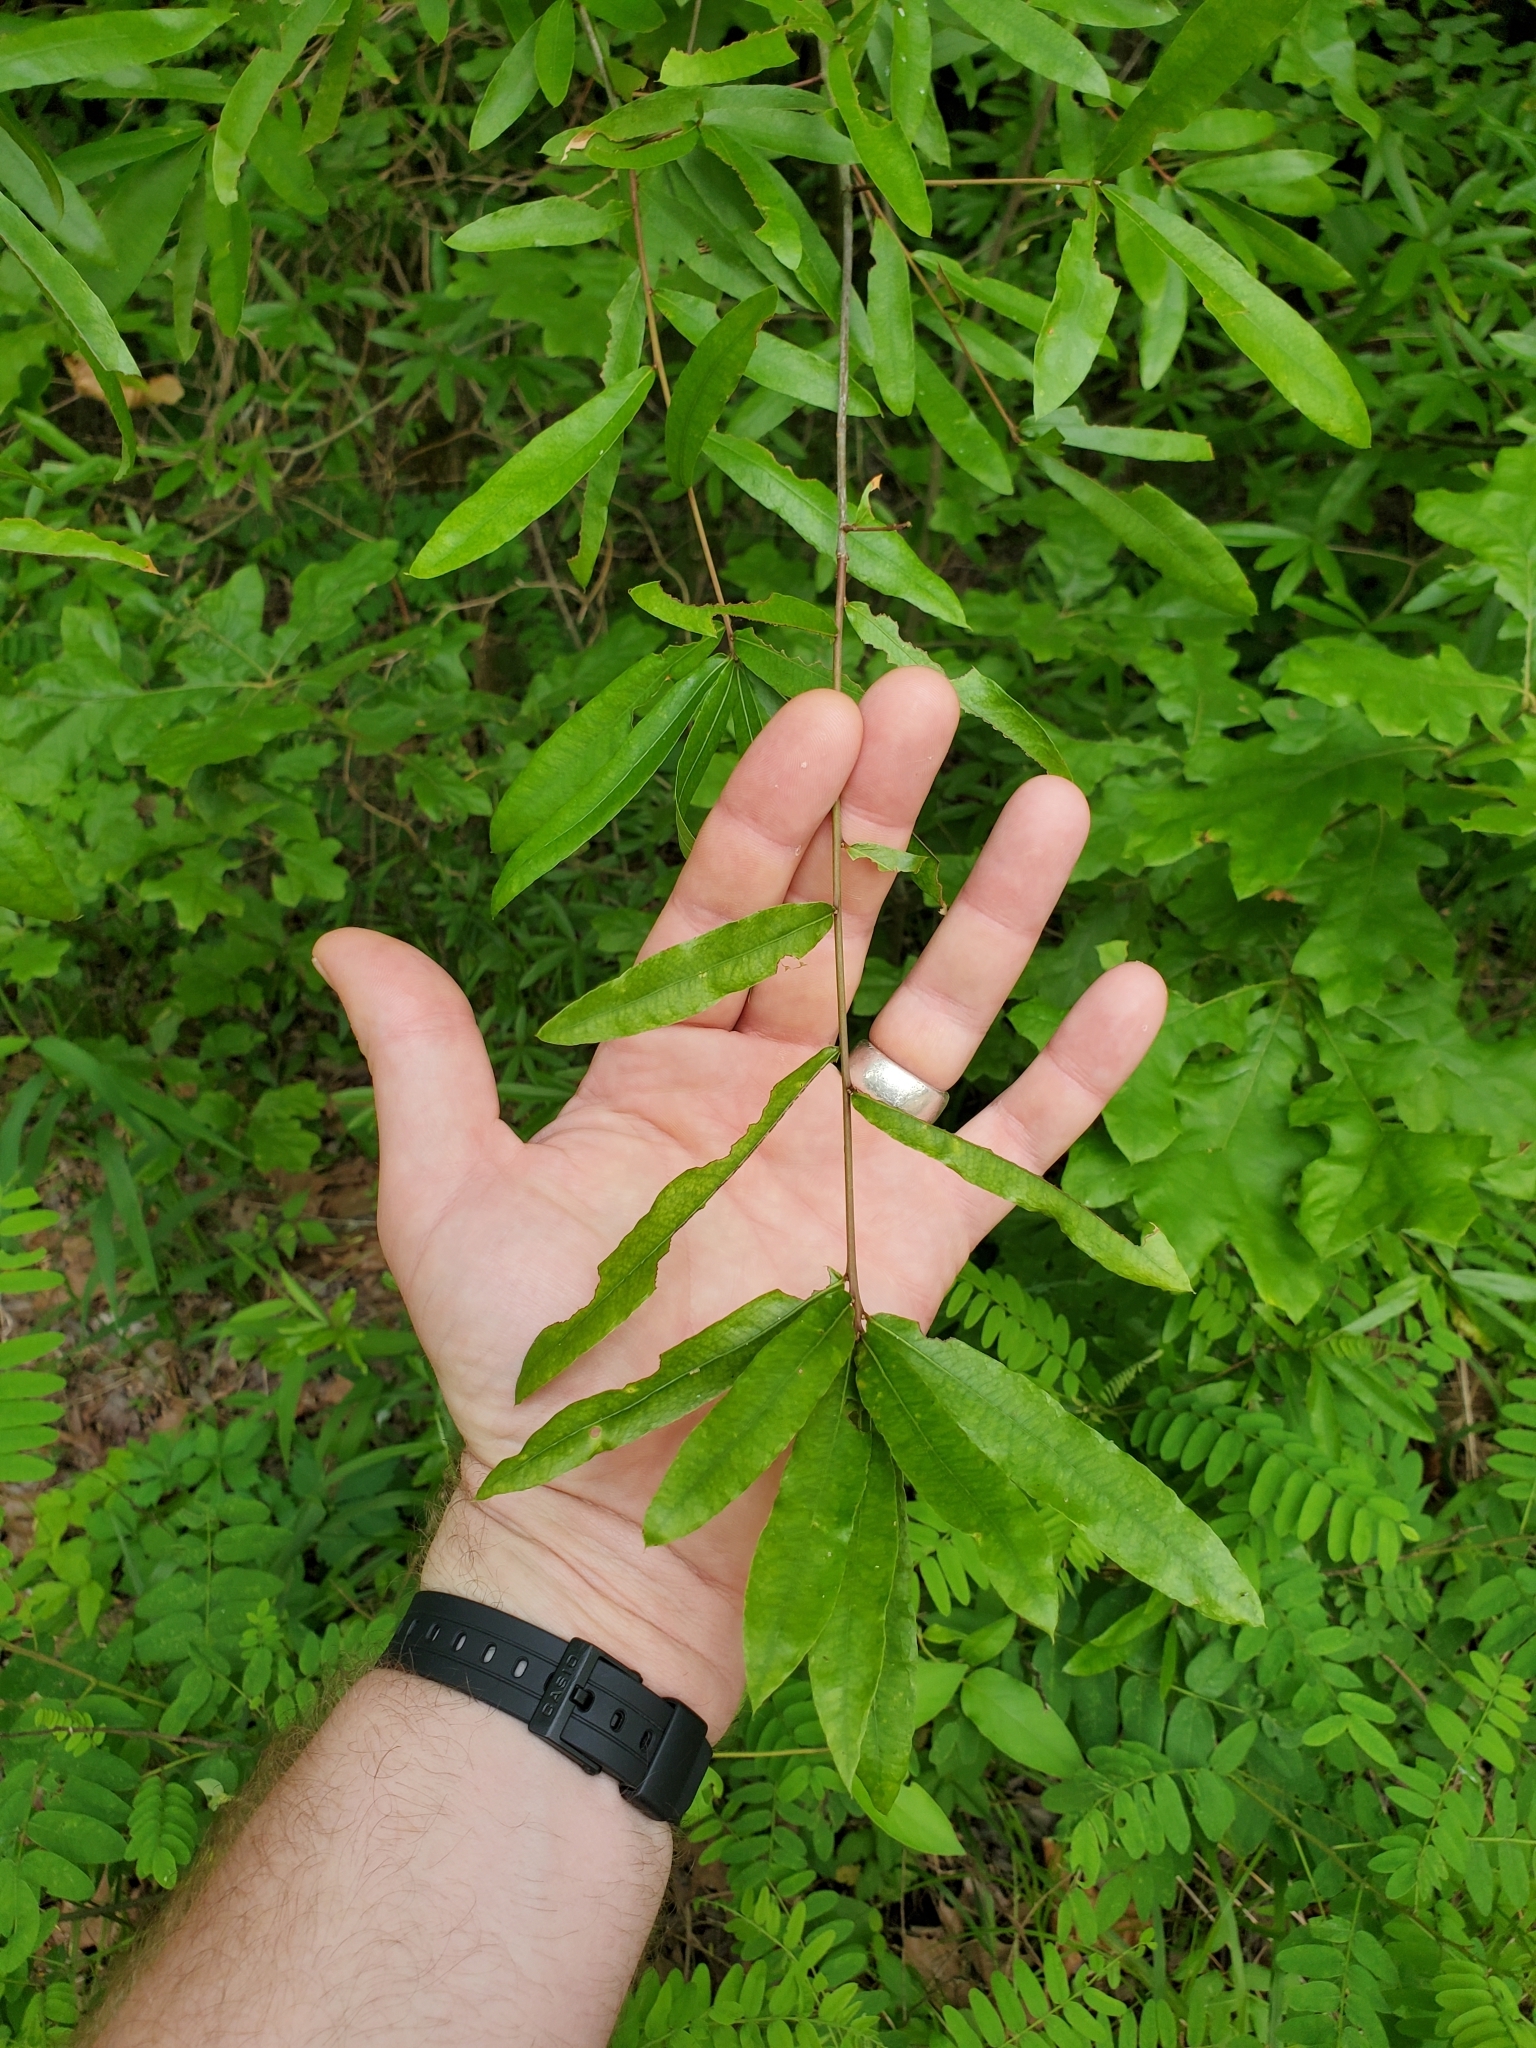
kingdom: Plantae
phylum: Tracheophyta
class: Magnoliopsida
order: Fagales
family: Fagaceae
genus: Quercus
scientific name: Quercus phellos
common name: Willow oak
